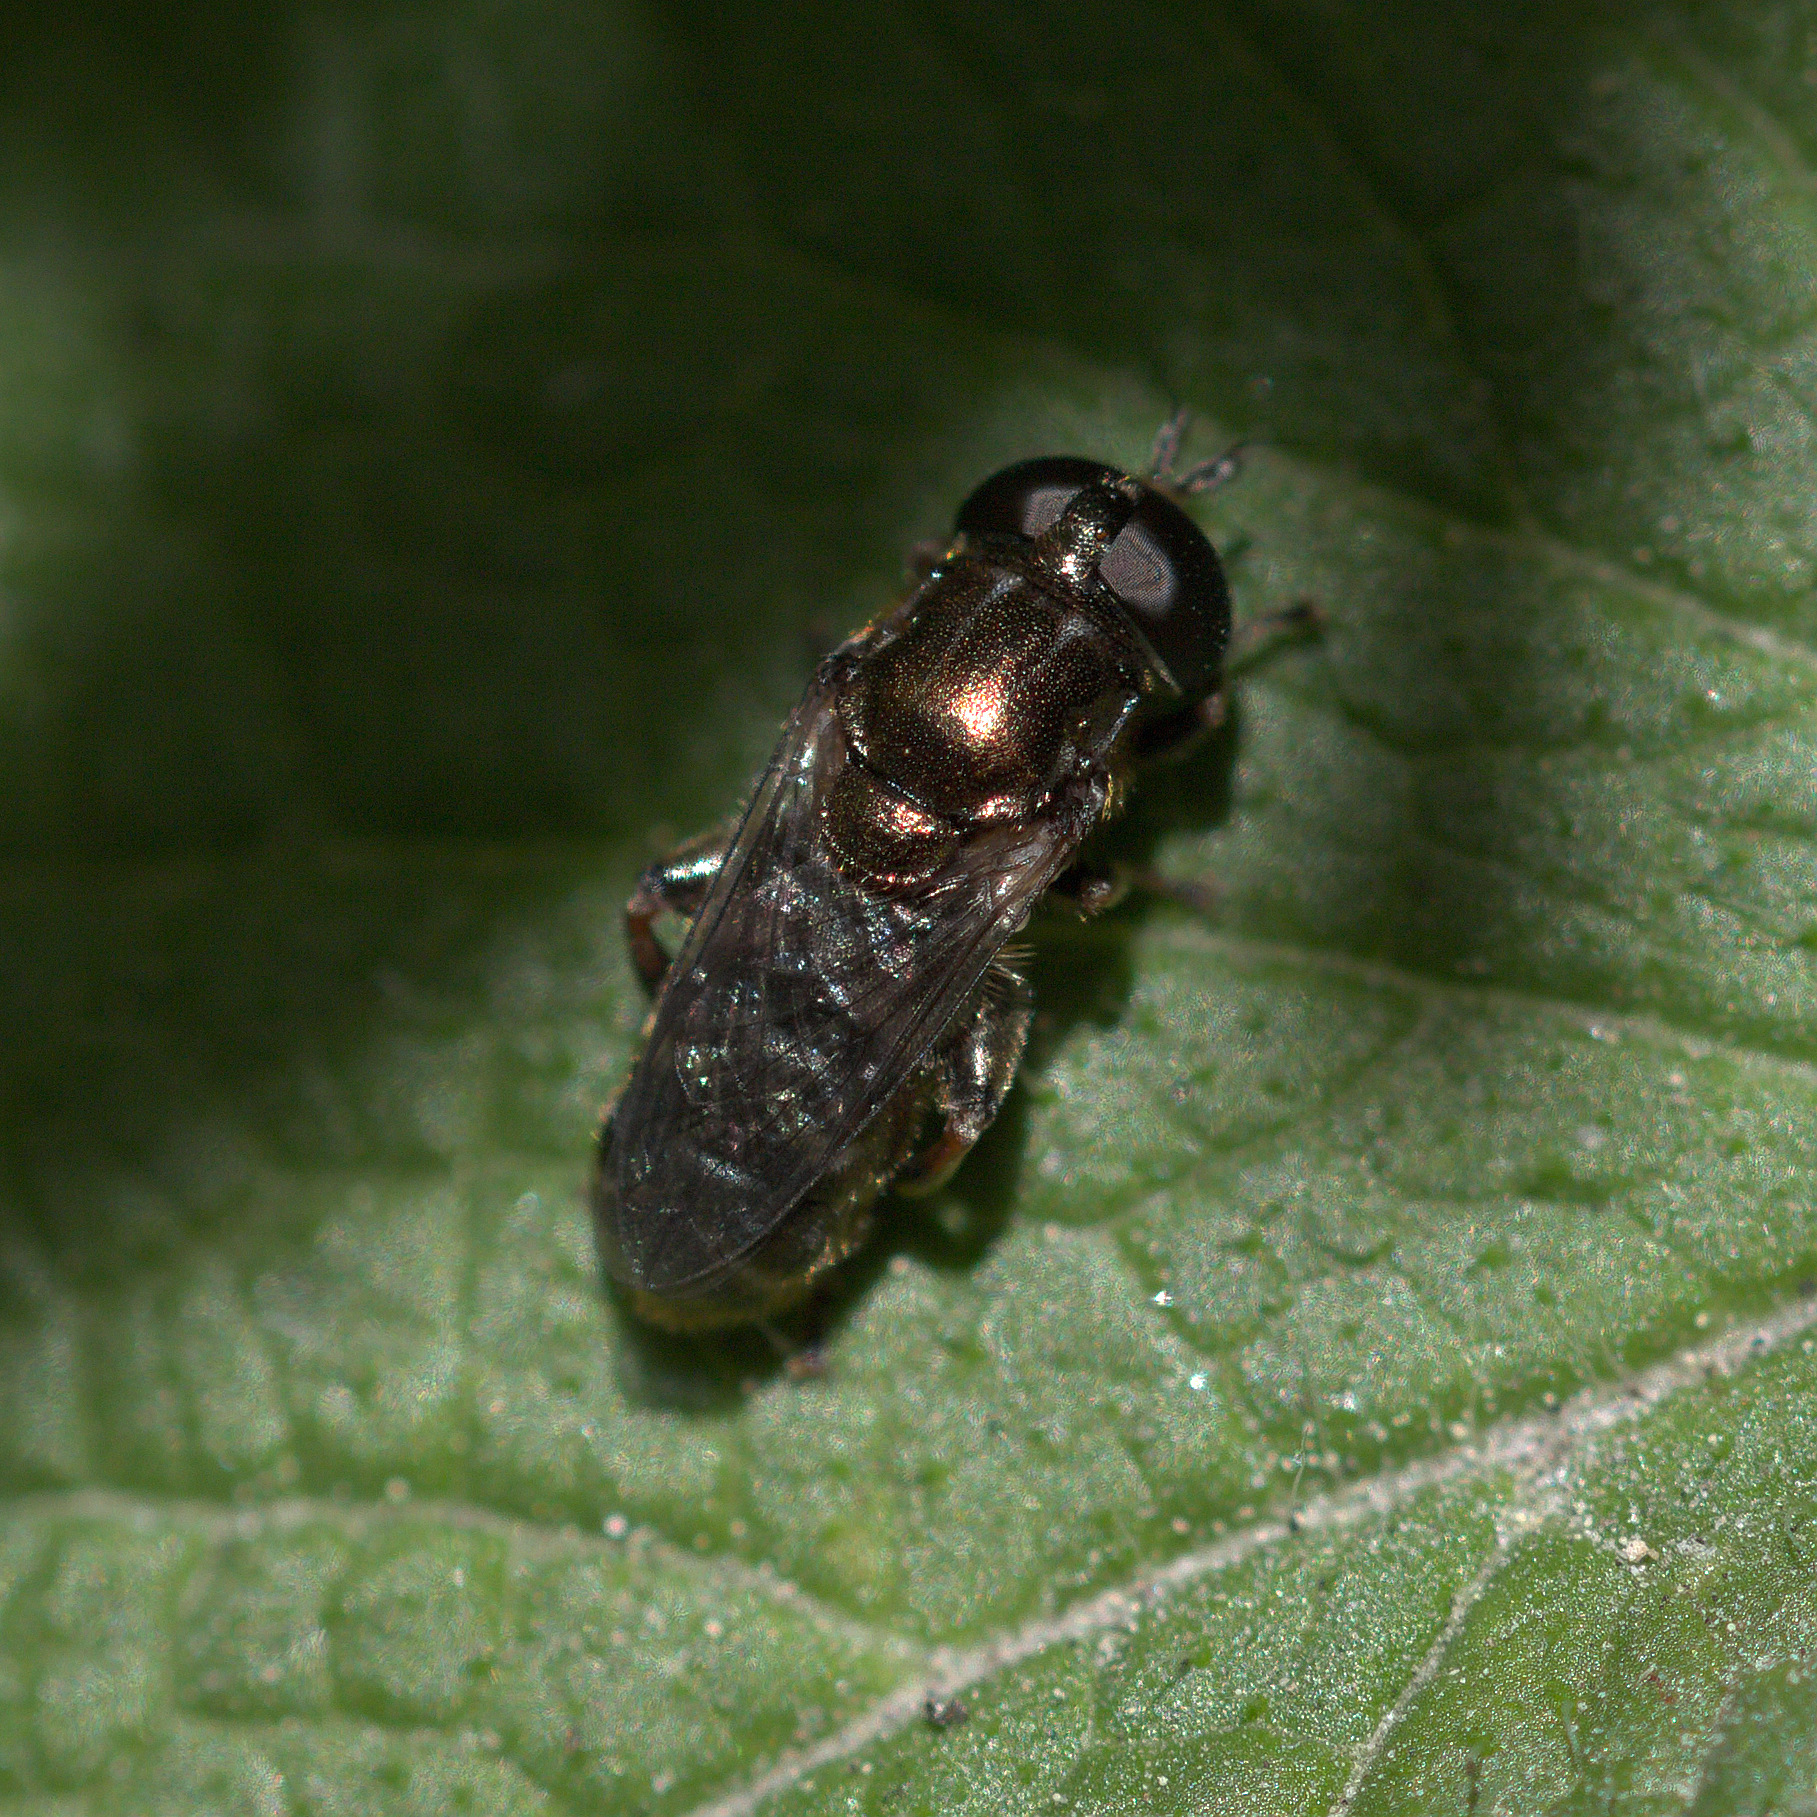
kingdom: Animalia
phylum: Arthropoda
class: Insecta
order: Diptera
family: Syrphidae
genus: Eumerus
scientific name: Eumerus
